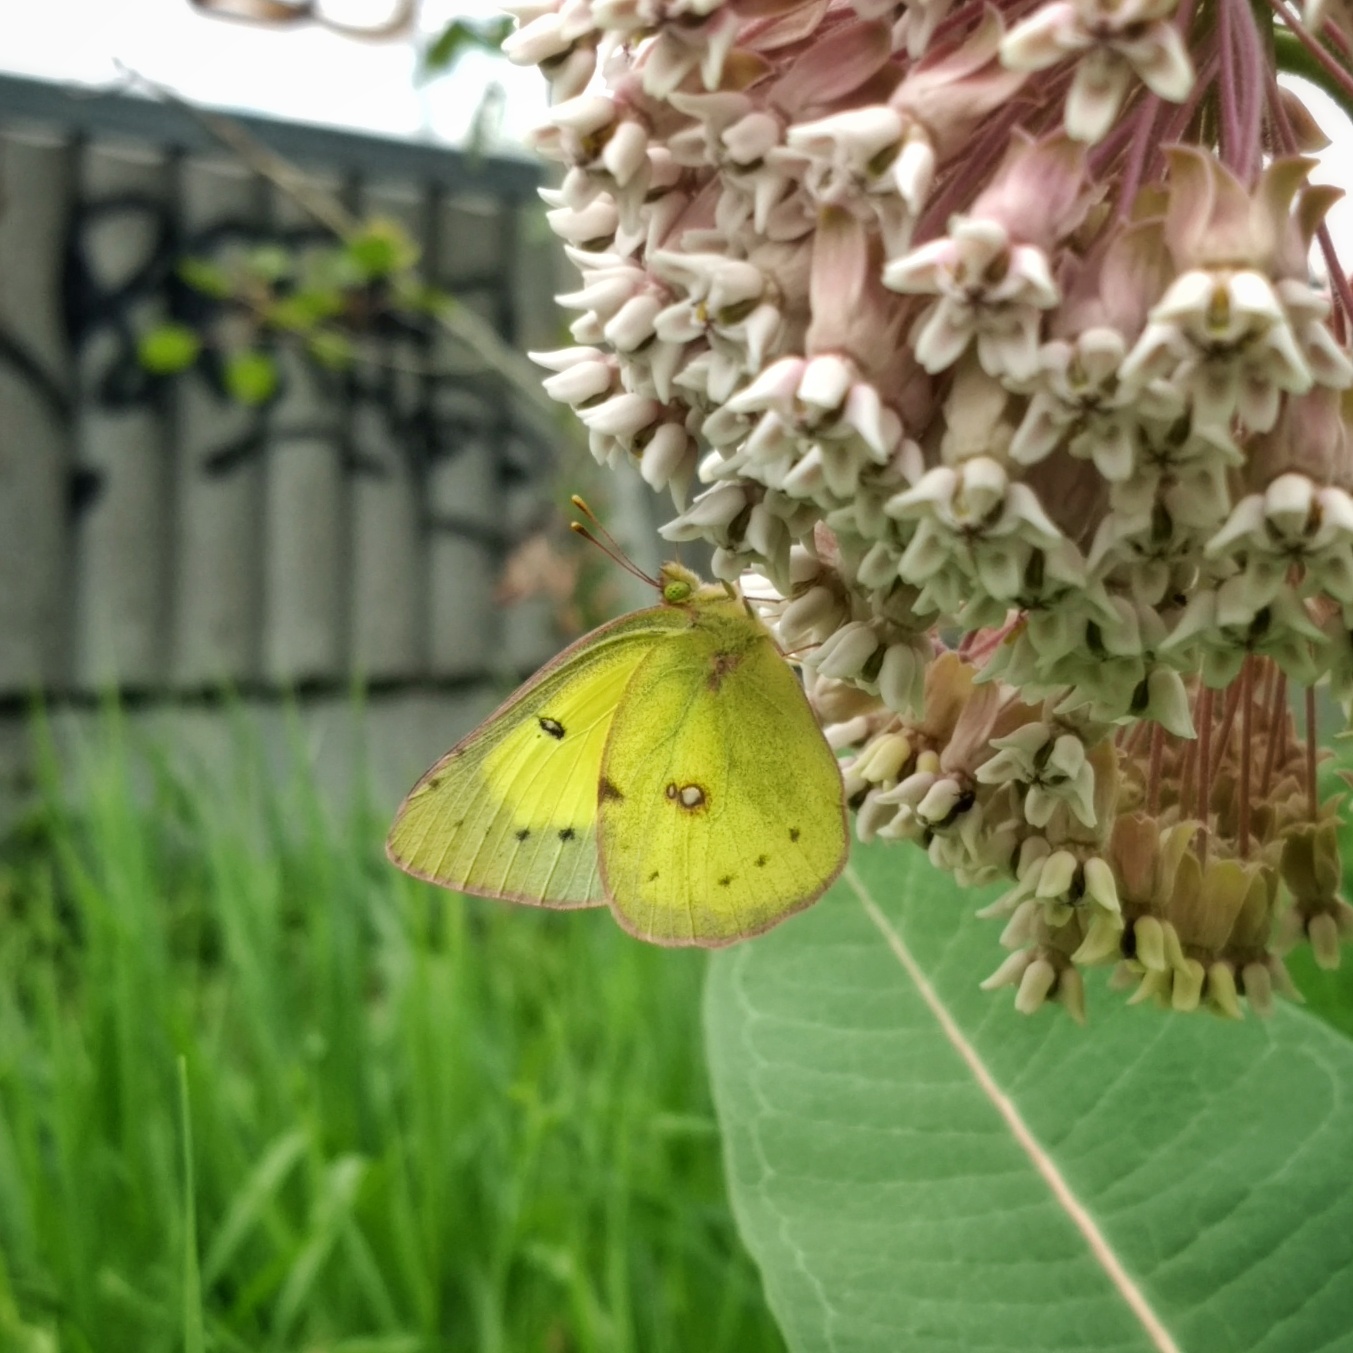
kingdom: Animalia
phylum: Arthropoda
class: Insecta
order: Lepidoptera
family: Pieridae
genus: Colias
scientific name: Colias philodice
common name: Clouded sulphur
